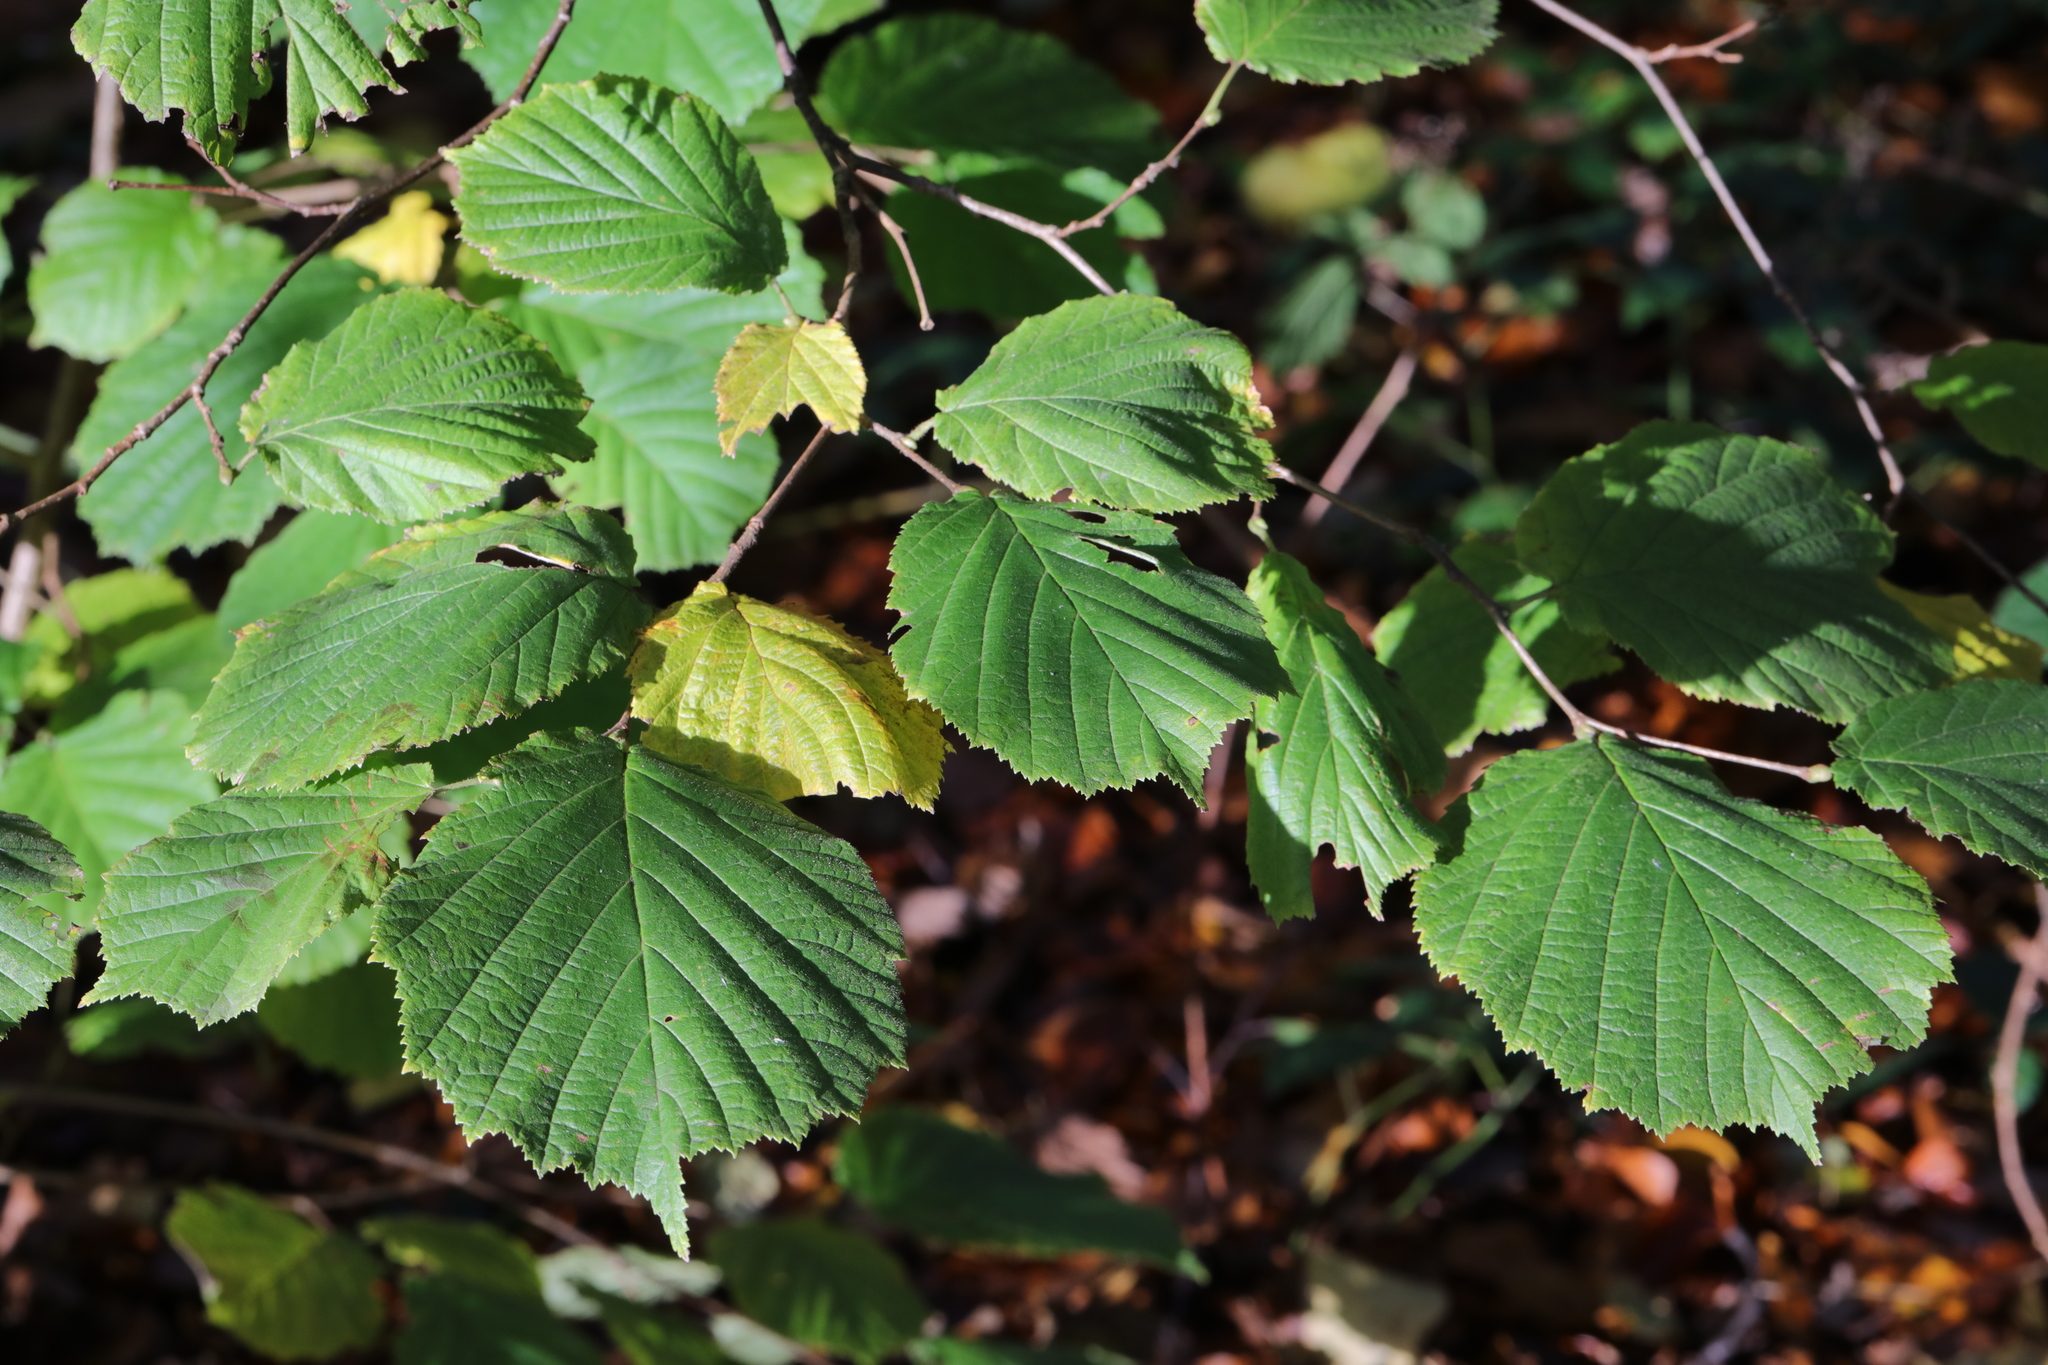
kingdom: Plantae
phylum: Tracheophyta
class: Magnoliopsida
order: Fagales
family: Betulaceae
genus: Corylus
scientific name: Corylus avellana
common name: European hazel
